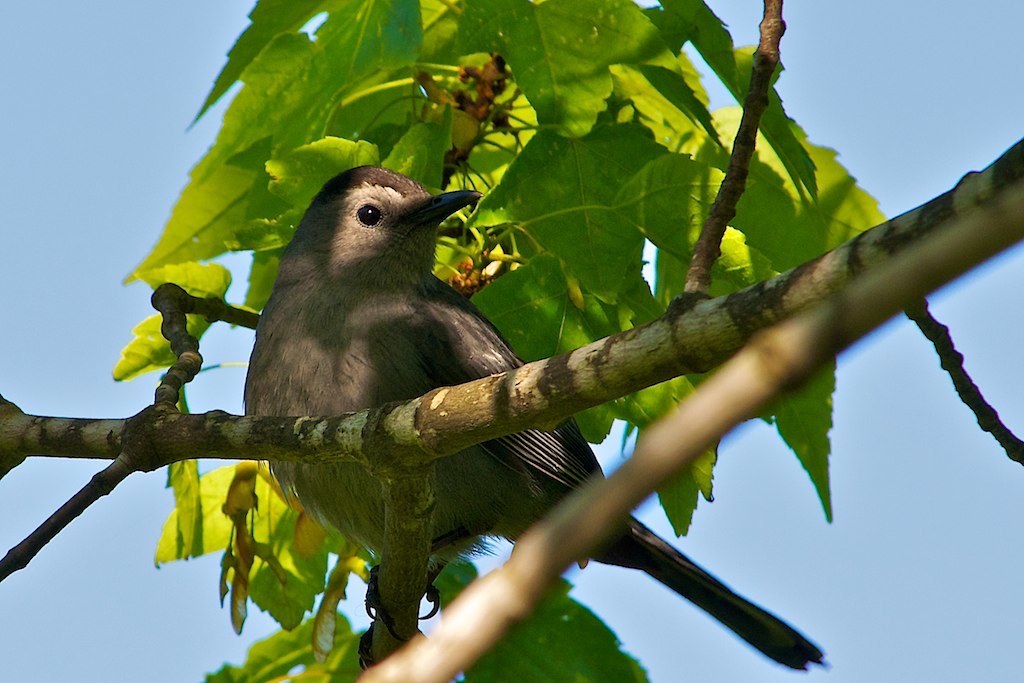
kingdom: Animalia
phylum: Chordata
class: Aves
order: Passeriformes
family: Mimidae
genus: Dumetella
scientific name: Dumetella carolinensis
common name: Gray catbird
